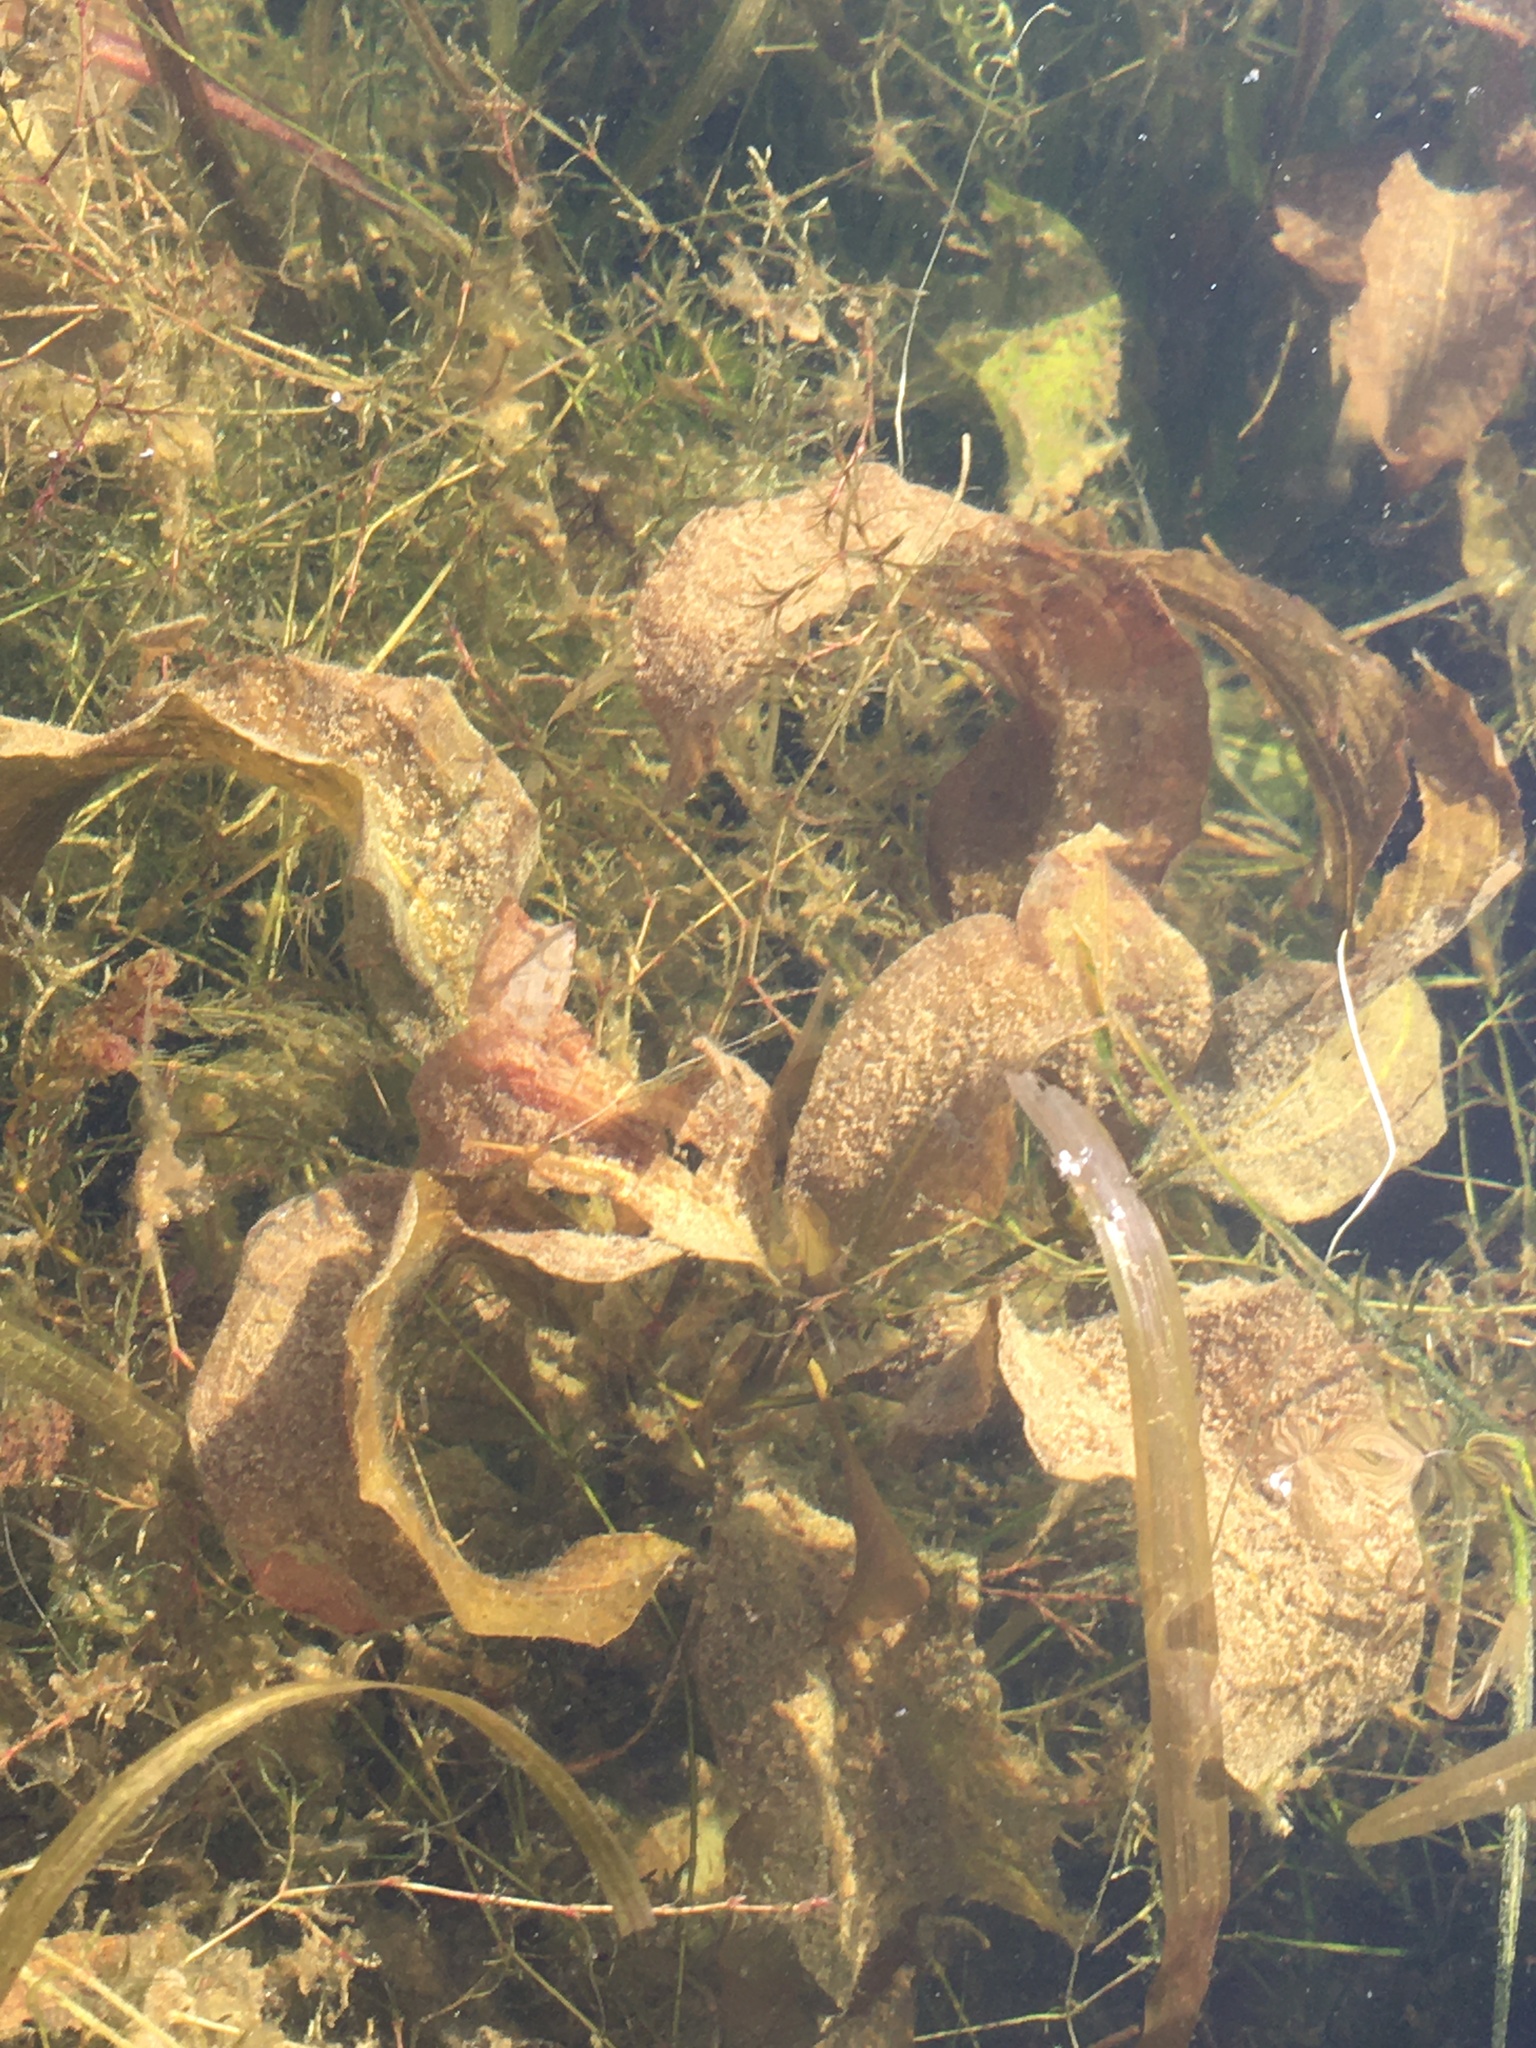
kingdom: Plantae
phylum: Tracheophyta
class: Liliopsida
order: Alismatales
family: Potamogetonaceae
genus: Potamogeton
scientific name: Potamogeton amplifolius
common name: Broad-leaved pondweed
